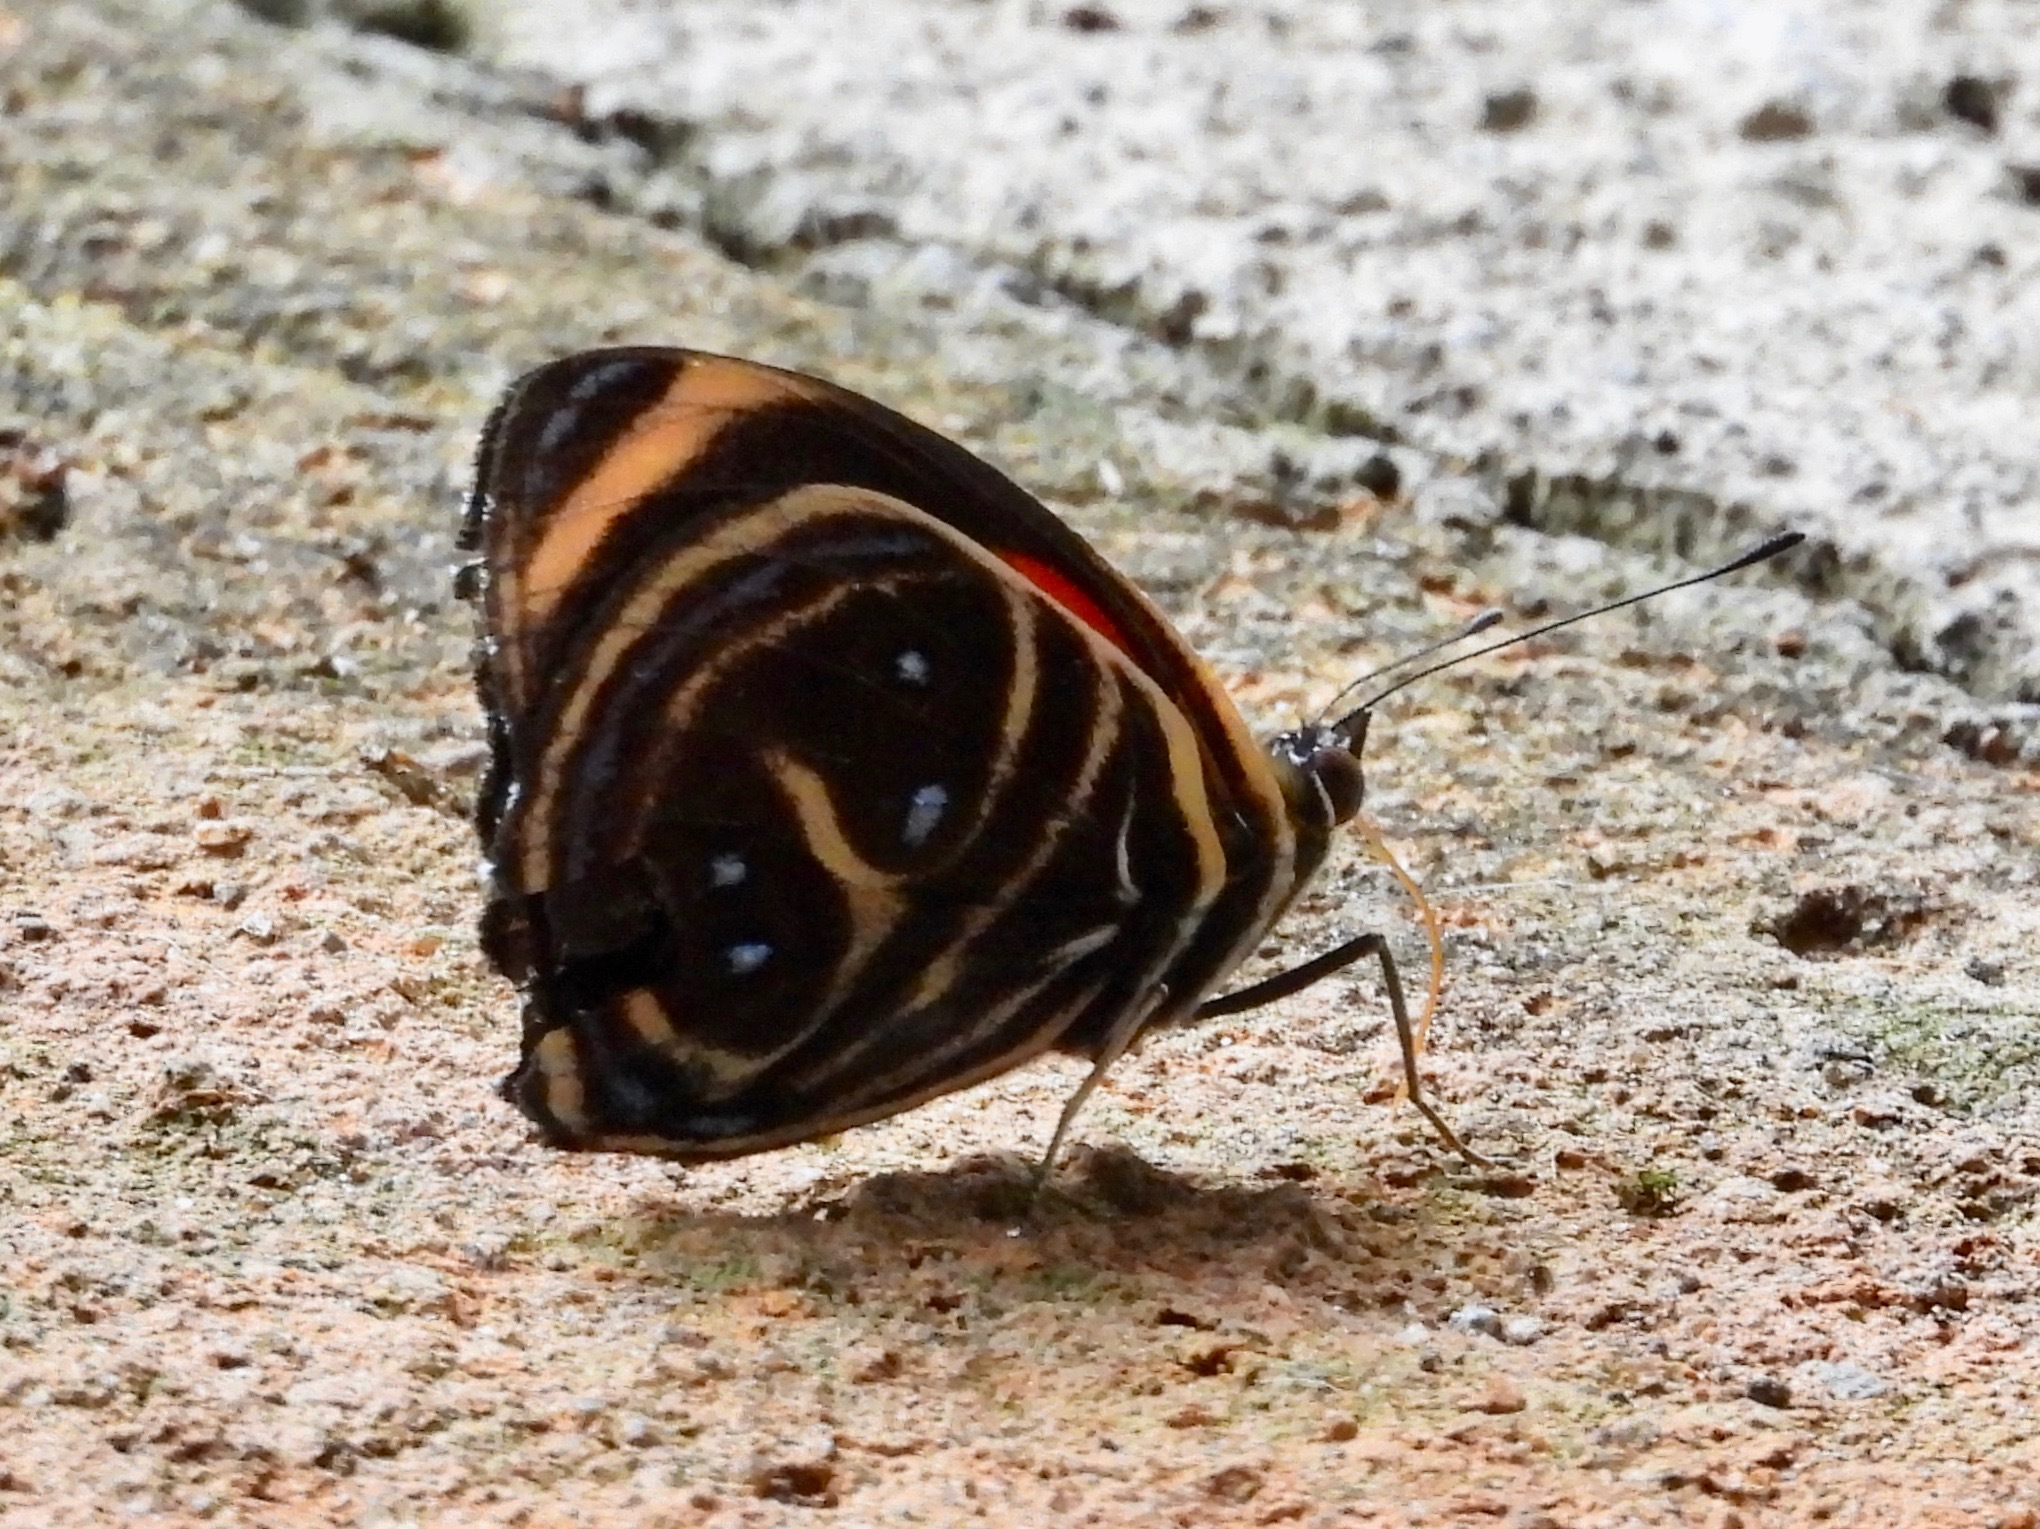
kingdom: Animalia
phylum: Arthropoda
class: Insecta
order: Lepidoptera
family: Nymphalidae
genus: Catagramma
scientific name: Catagramma texa
